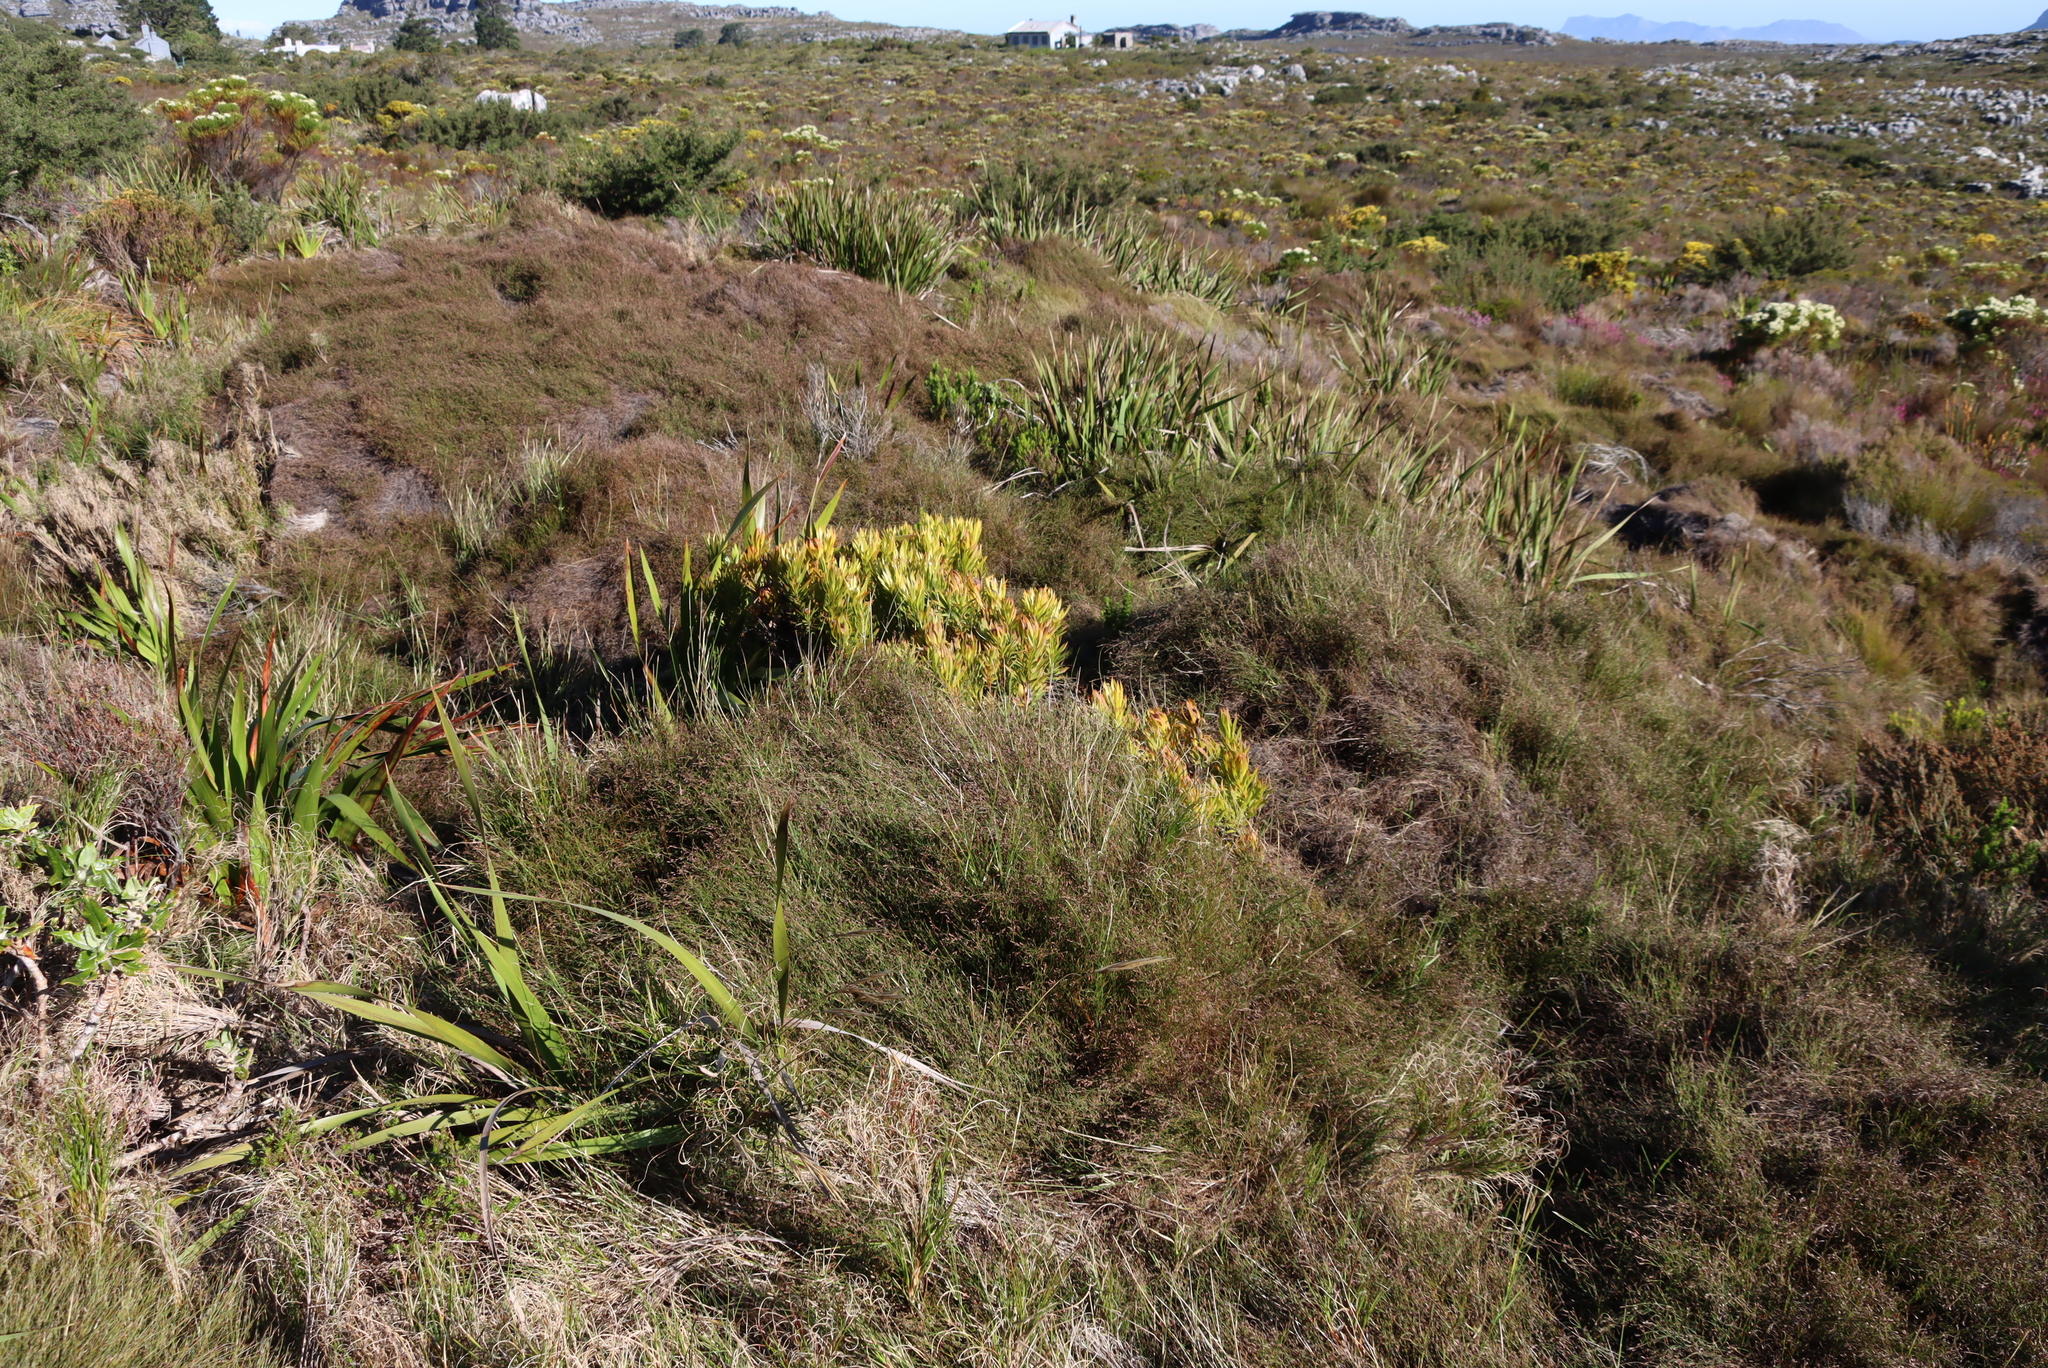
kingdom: Plantae
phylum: Tracheophyta
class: Magnoliopsida
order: Proteales
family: Proteaceae
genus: Leucadendron
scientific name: Leucadendron xanthoconus
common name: Sickle-leaf conebush
